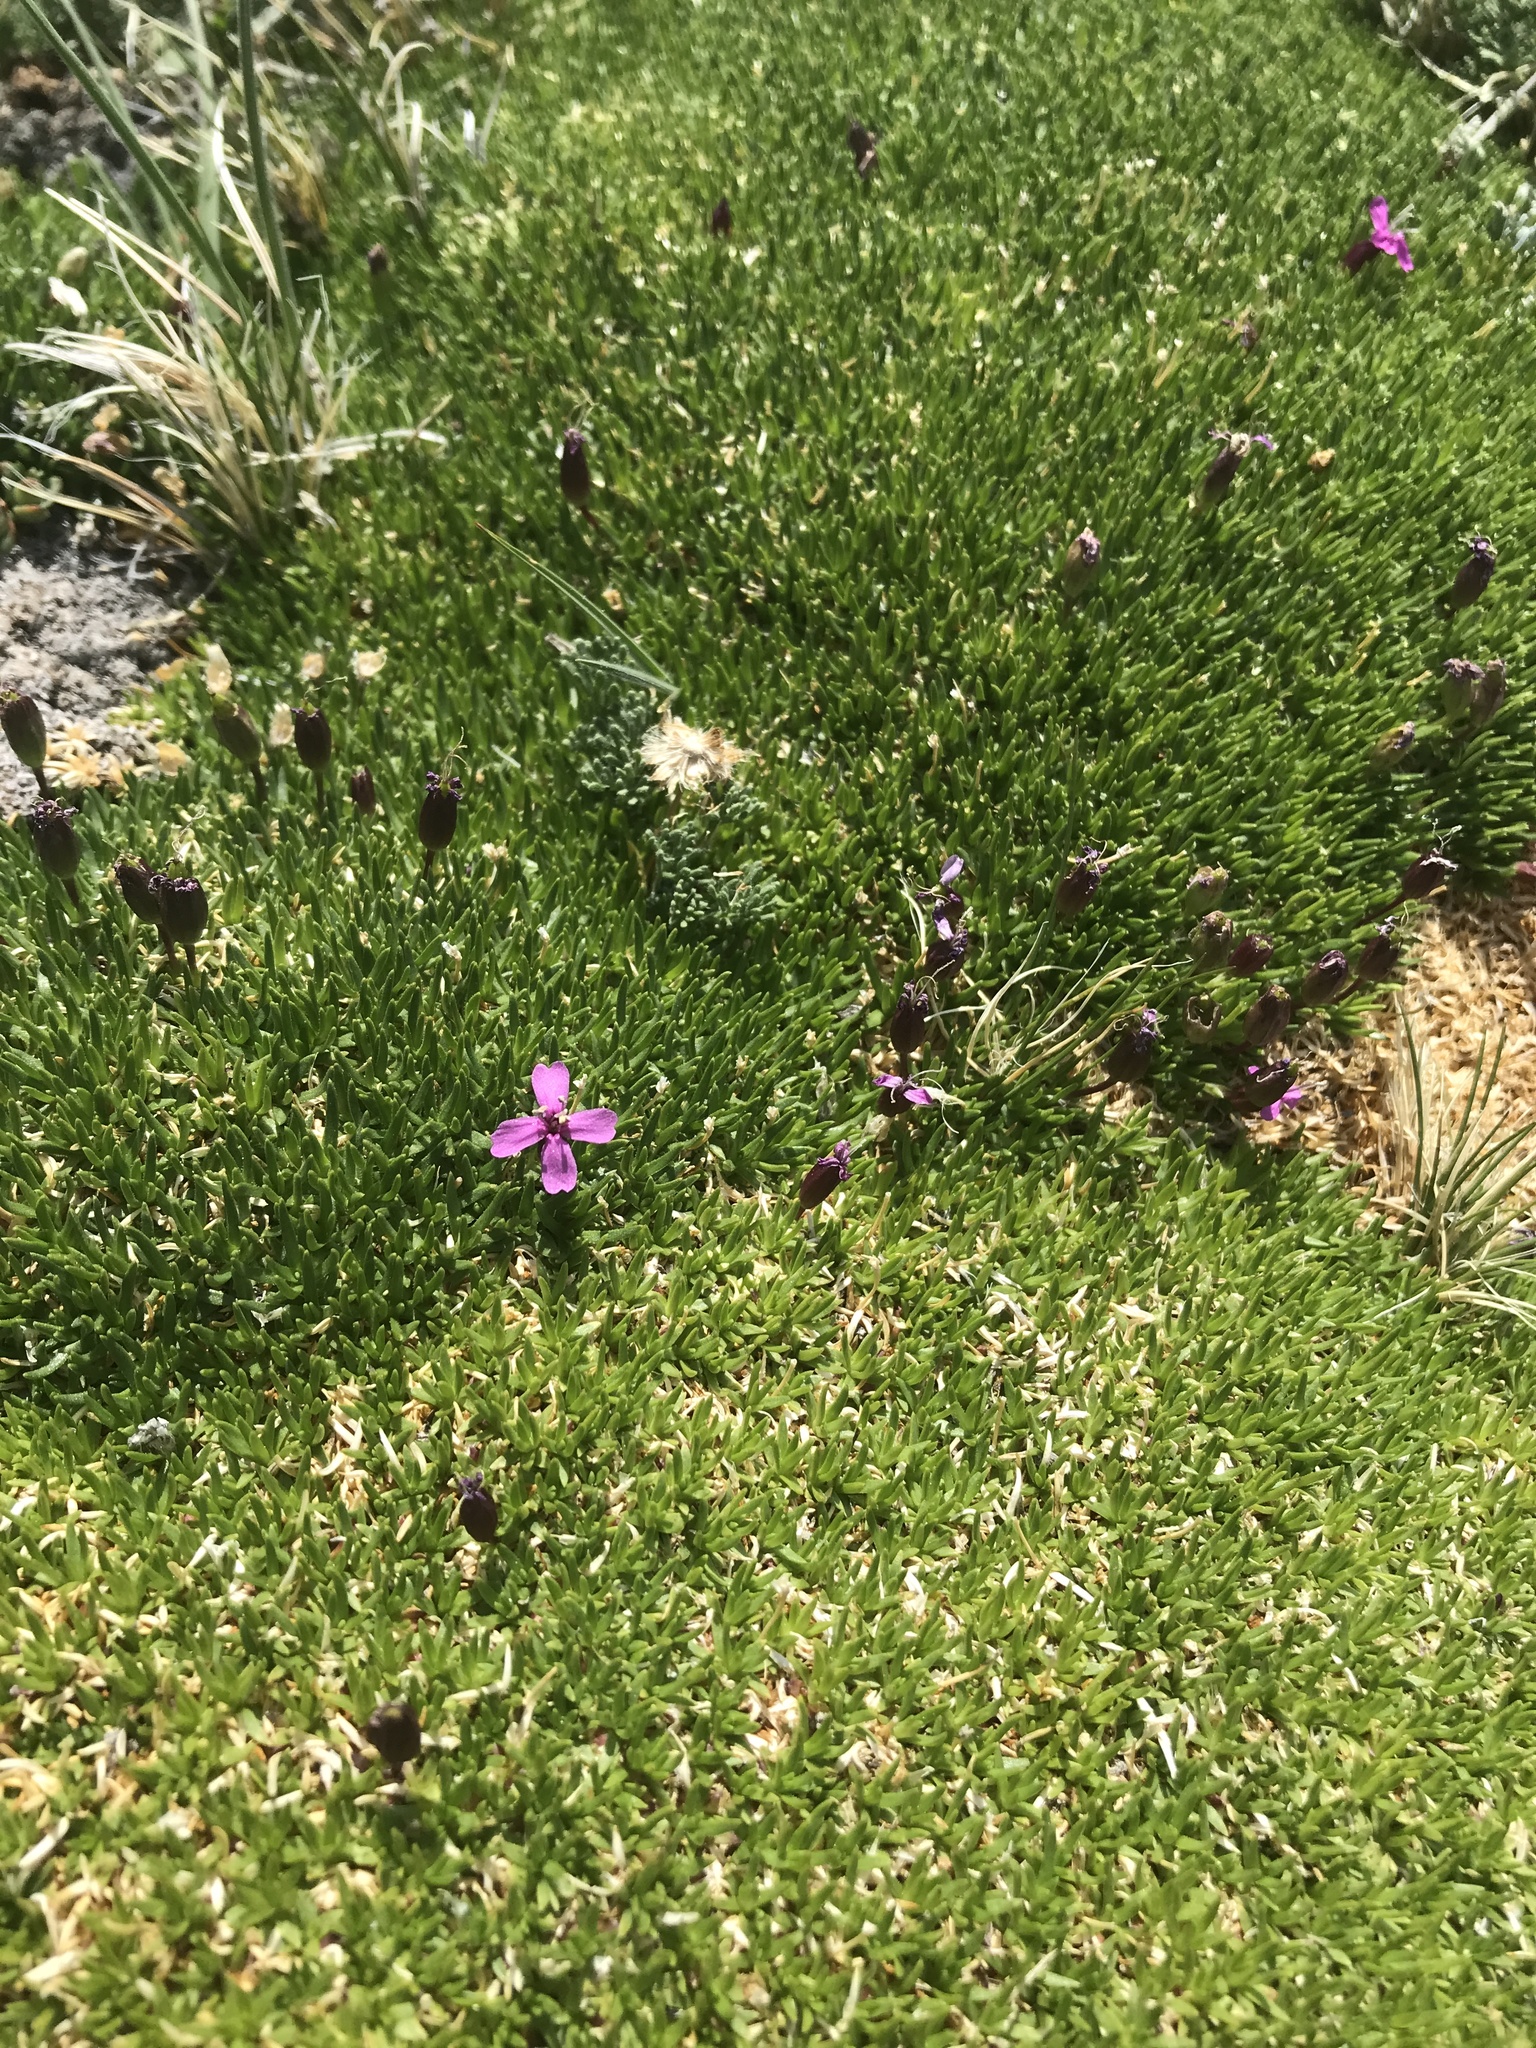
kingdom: Plantae
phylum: Tracheophyta
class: Magnoliopsida
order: Caryophyllales
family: Caryophyllaceae
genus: Silene
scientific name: Silene acaulis
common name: Moss campion
